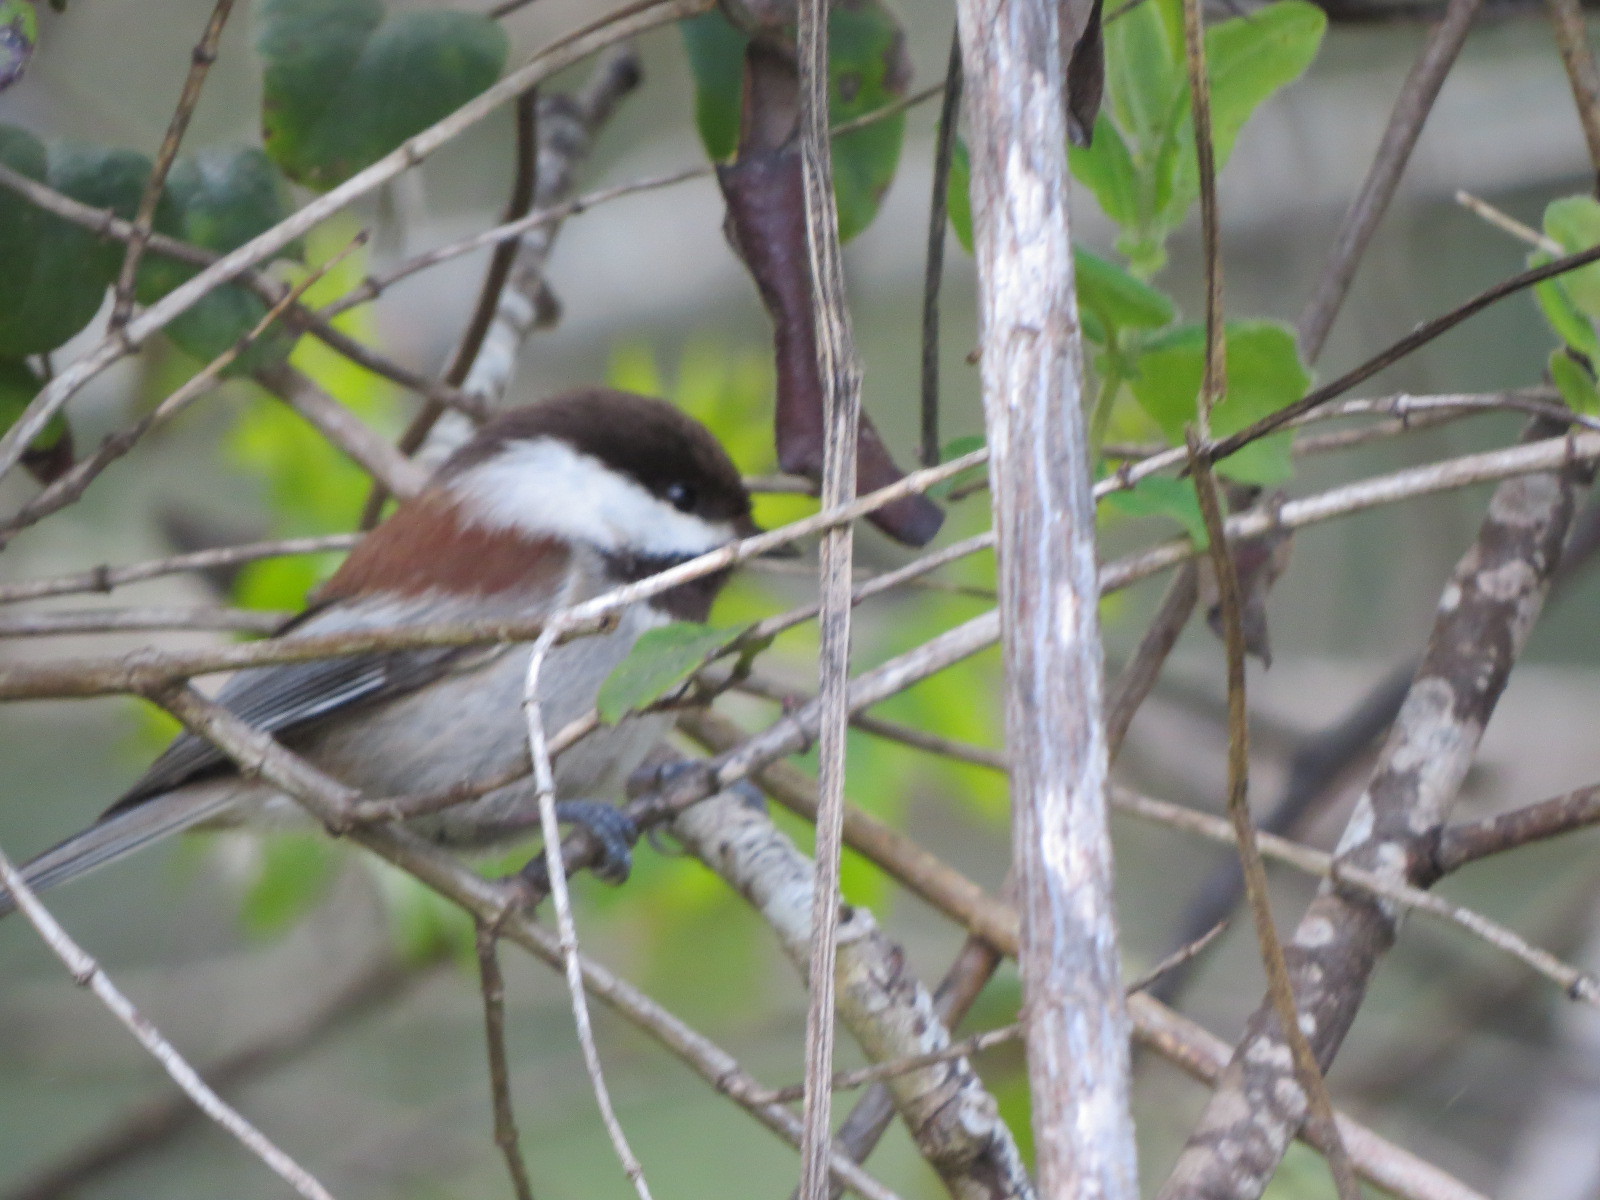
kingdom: Animalia
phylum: Chordata
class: Aves
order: Passeriformes
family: Paridae
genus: Poecile
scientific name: Poecile rufescens
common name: Chestnut-backed chickadee
